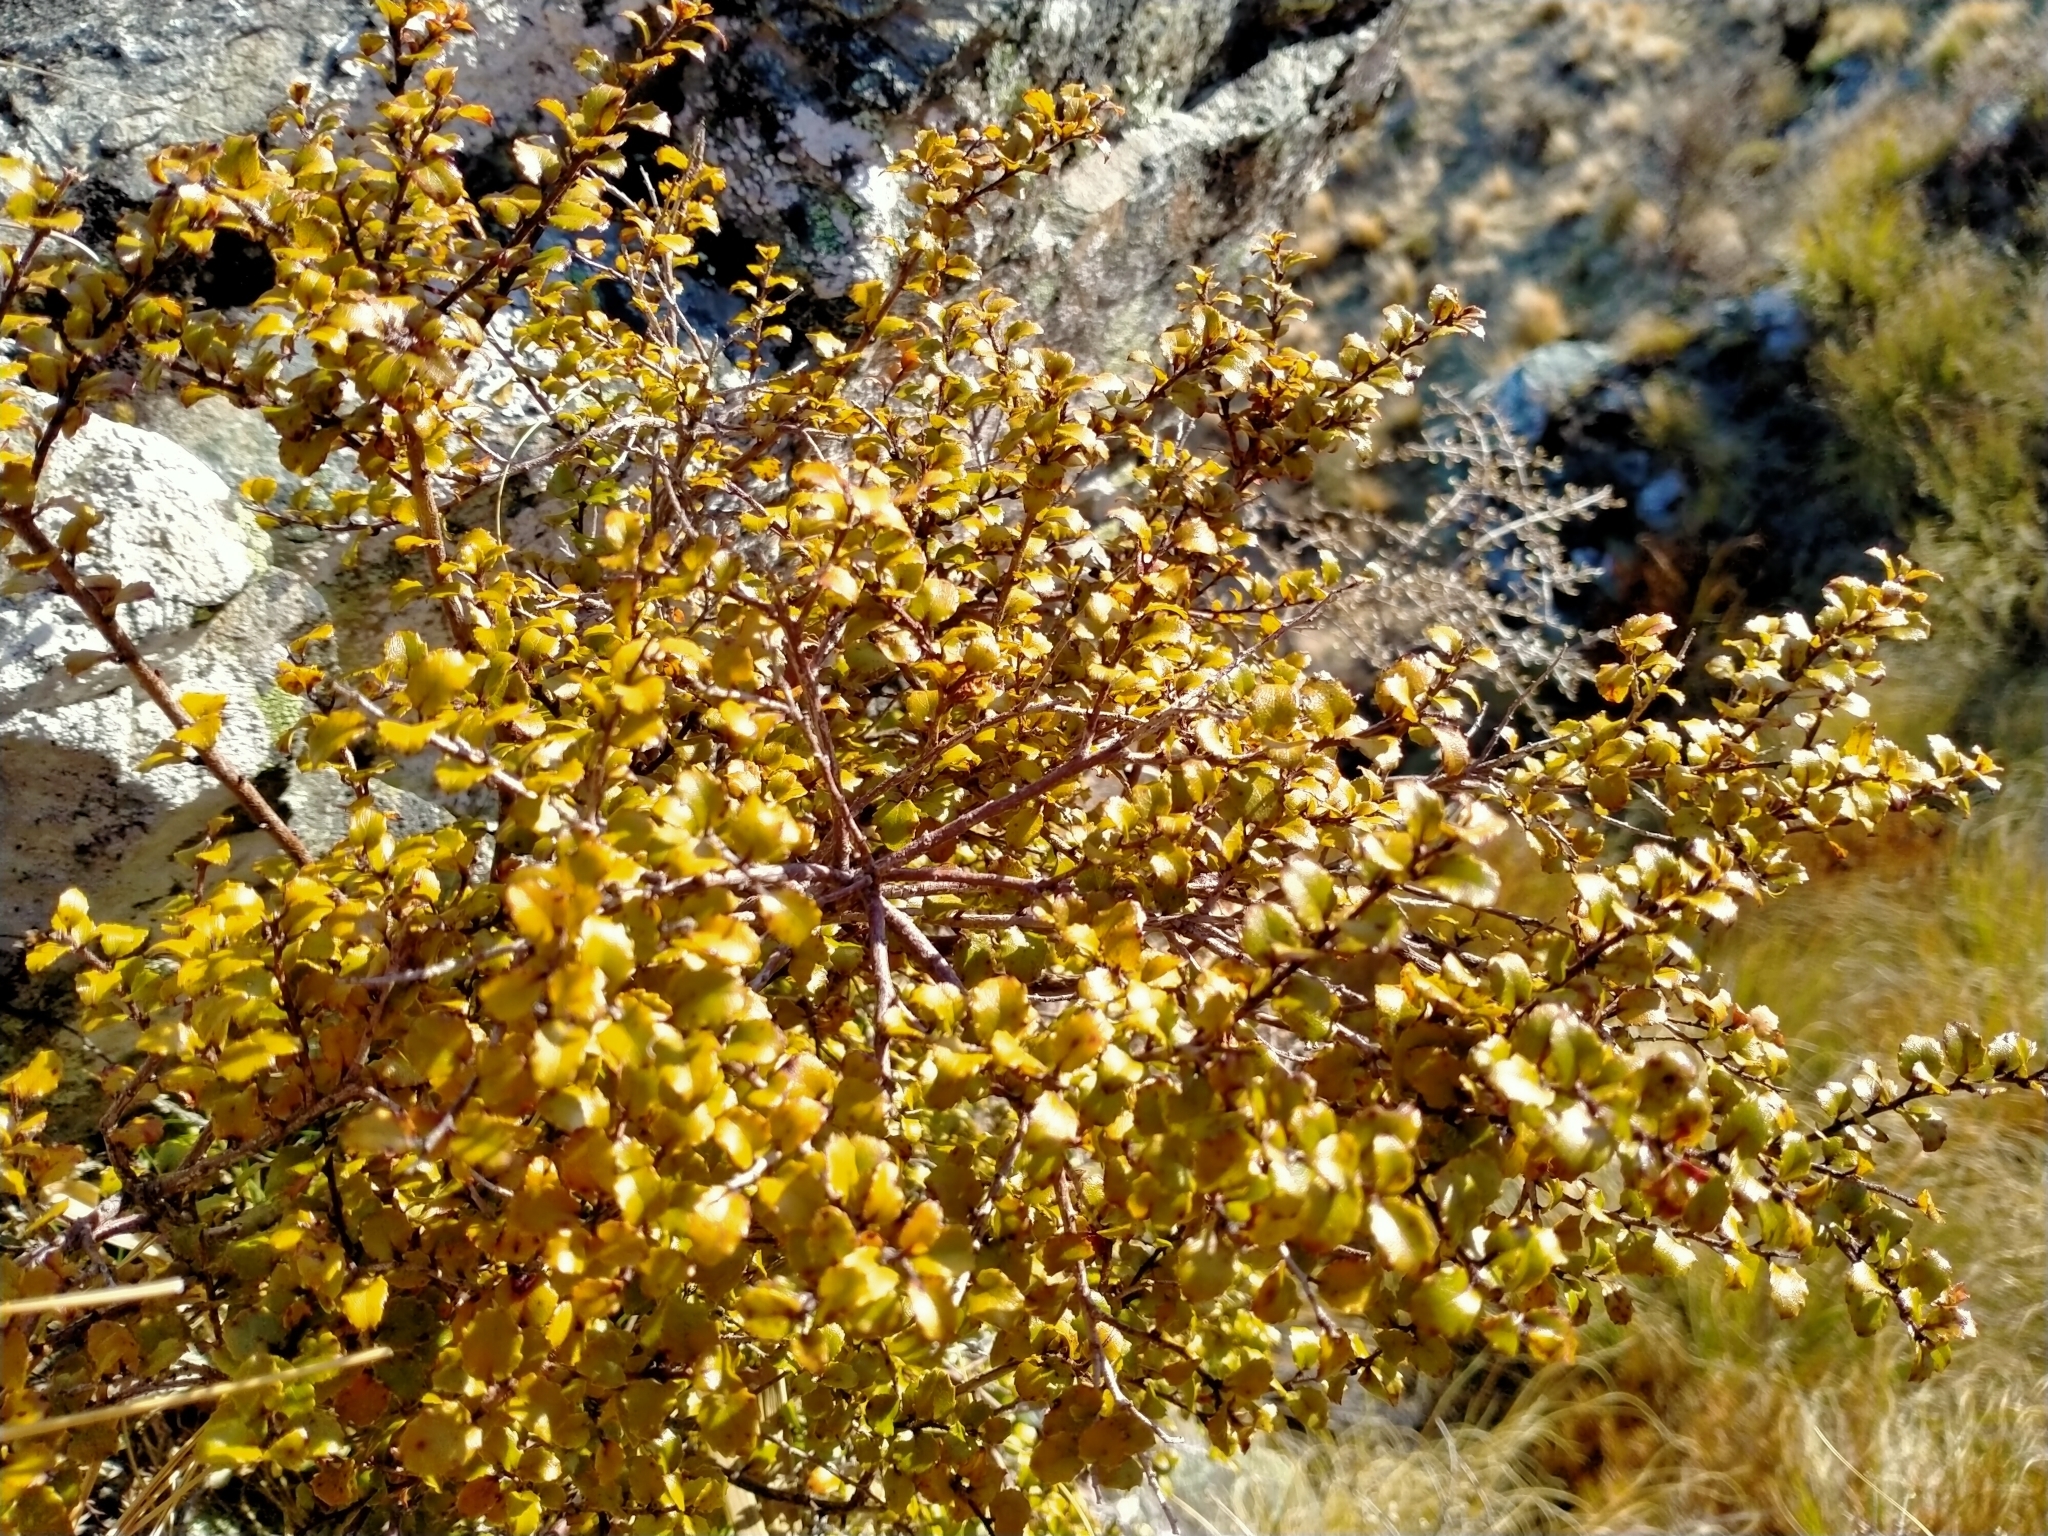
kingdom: Plantae
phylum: Tracheophyta
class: Magnoliopsida
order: Ericales
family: Ericaceae
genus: Gaultheria
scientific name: Gaultheria antipoda
